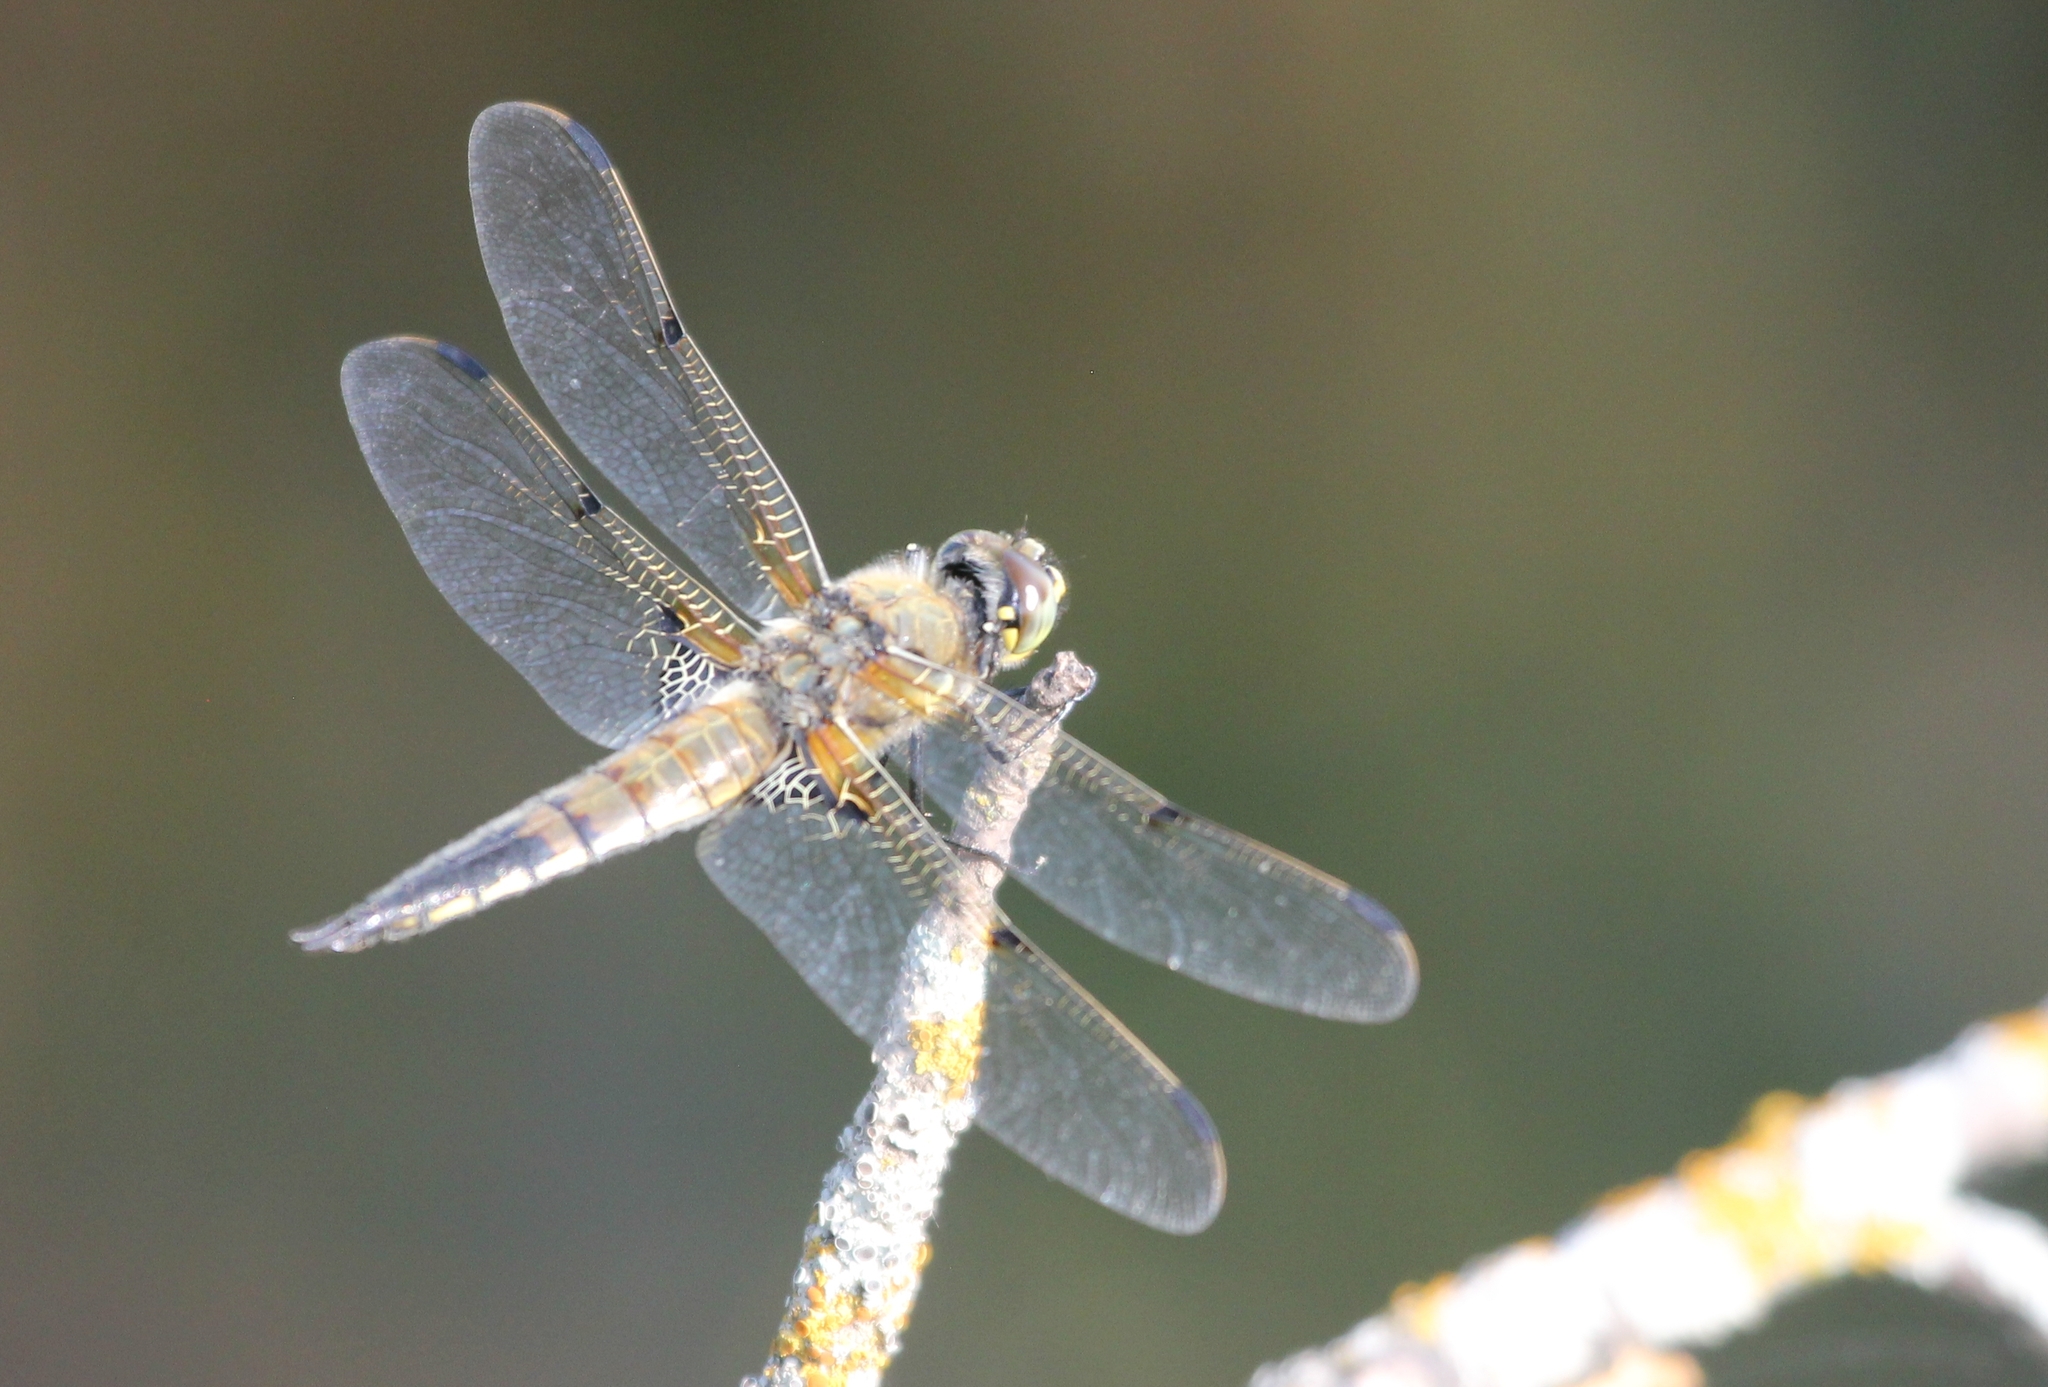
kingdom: Animalia
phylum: Arthropoda
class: Insecta
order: Odonata
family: Libellulidae
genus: Libellula
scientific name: Libellula quadrimaculata
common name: Four-spotted chaser
